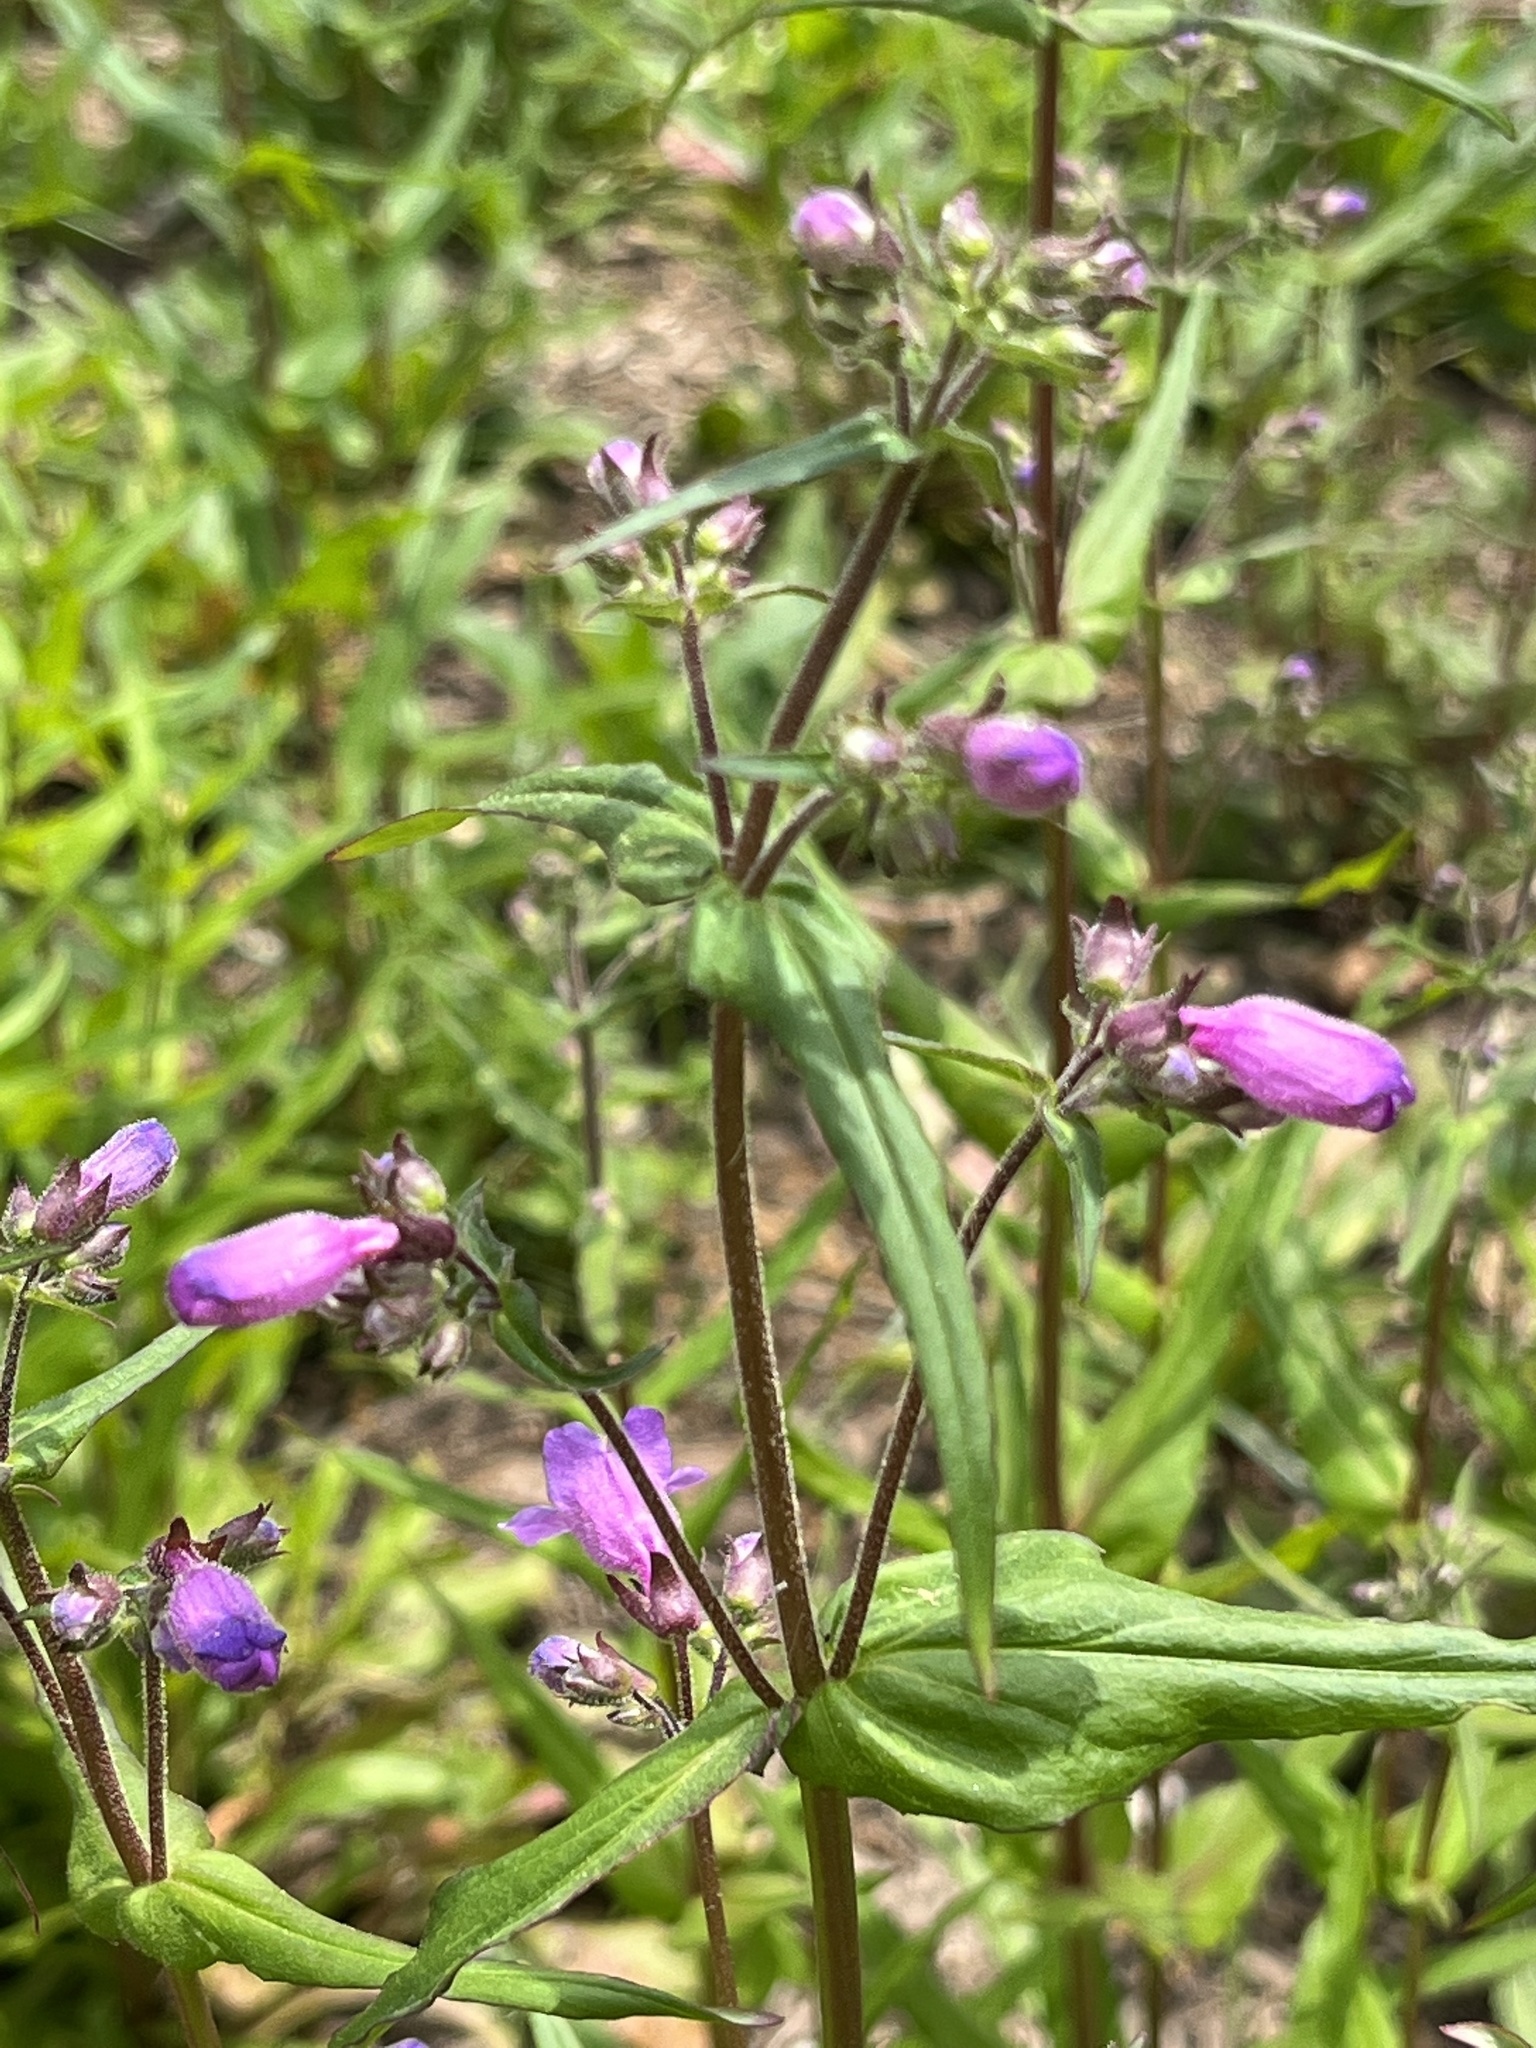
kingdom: Plantae
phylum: Tracheophyta
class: Magnoliopsida
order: Lamiales
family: Plantaginaceae
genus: Penstemon
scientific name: Penstemon tenuis
